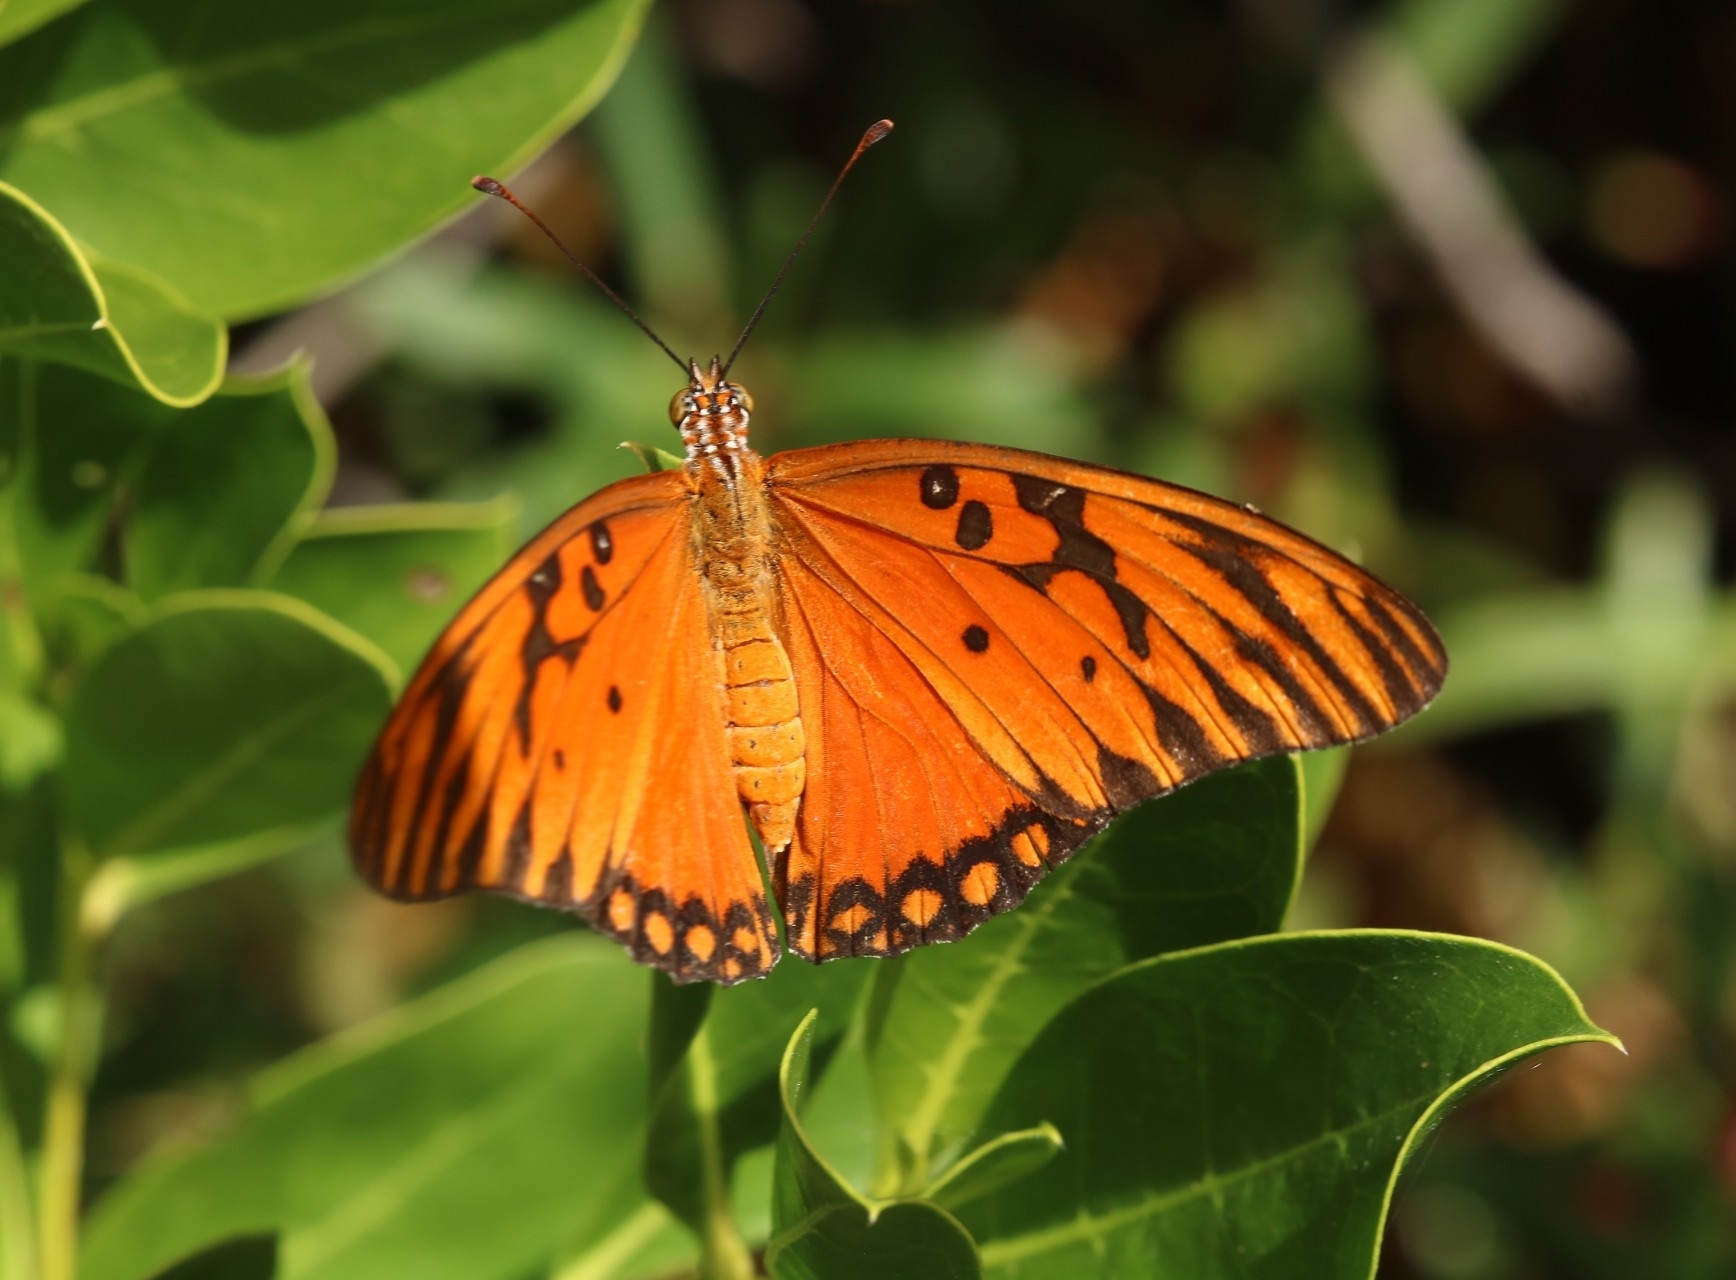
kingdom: Animalia
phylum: Arthropoda
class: Insecta
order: Lepidoptera
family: Nymphalidae
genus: Dione
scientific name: Dione vanillae
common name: Gulf fritillary
